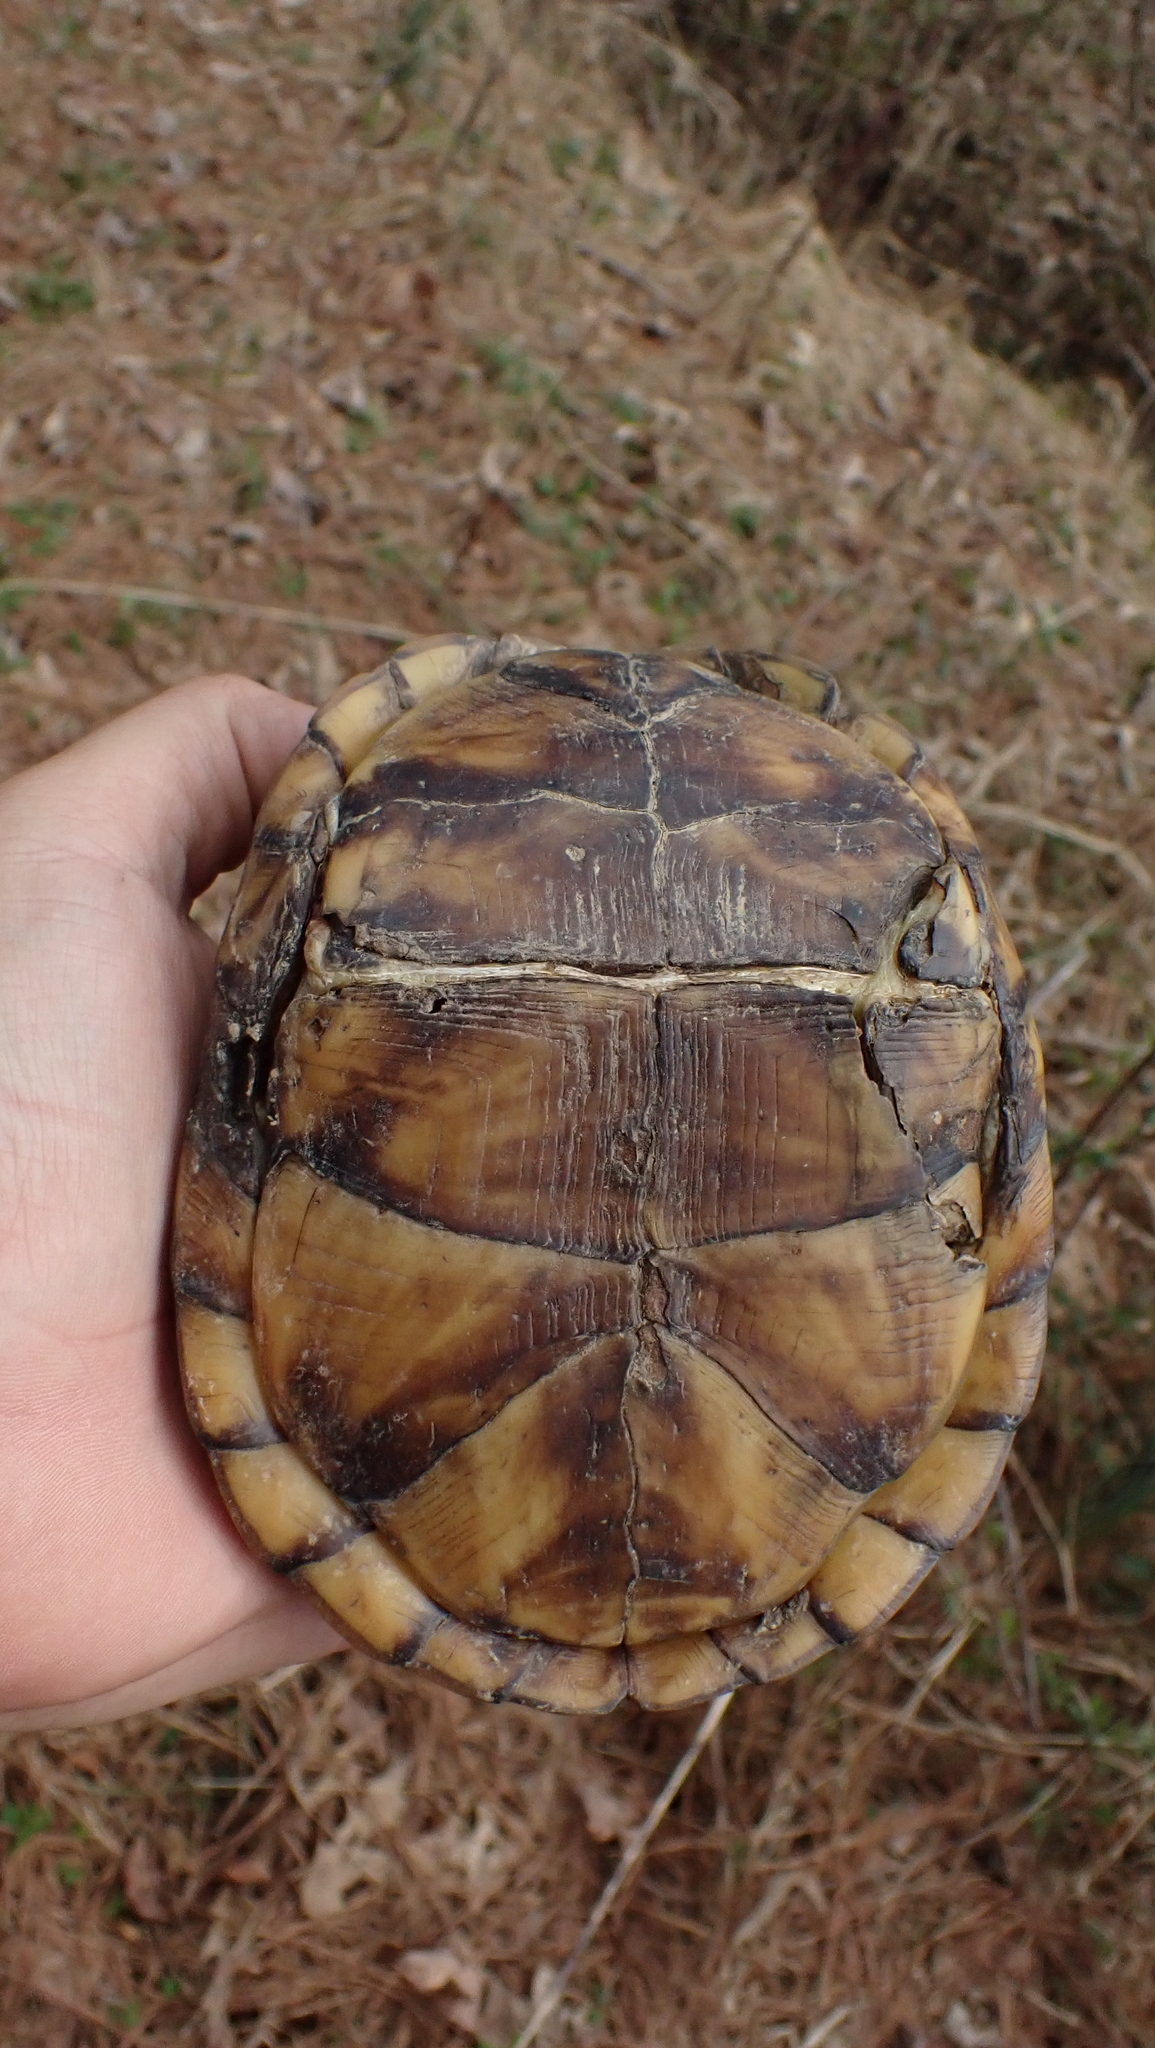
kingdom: Animalia
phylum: Chordata
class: Testudines
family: Emydidae
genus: Terrapene
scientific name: Terrapene carolina
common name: Common box turtle
